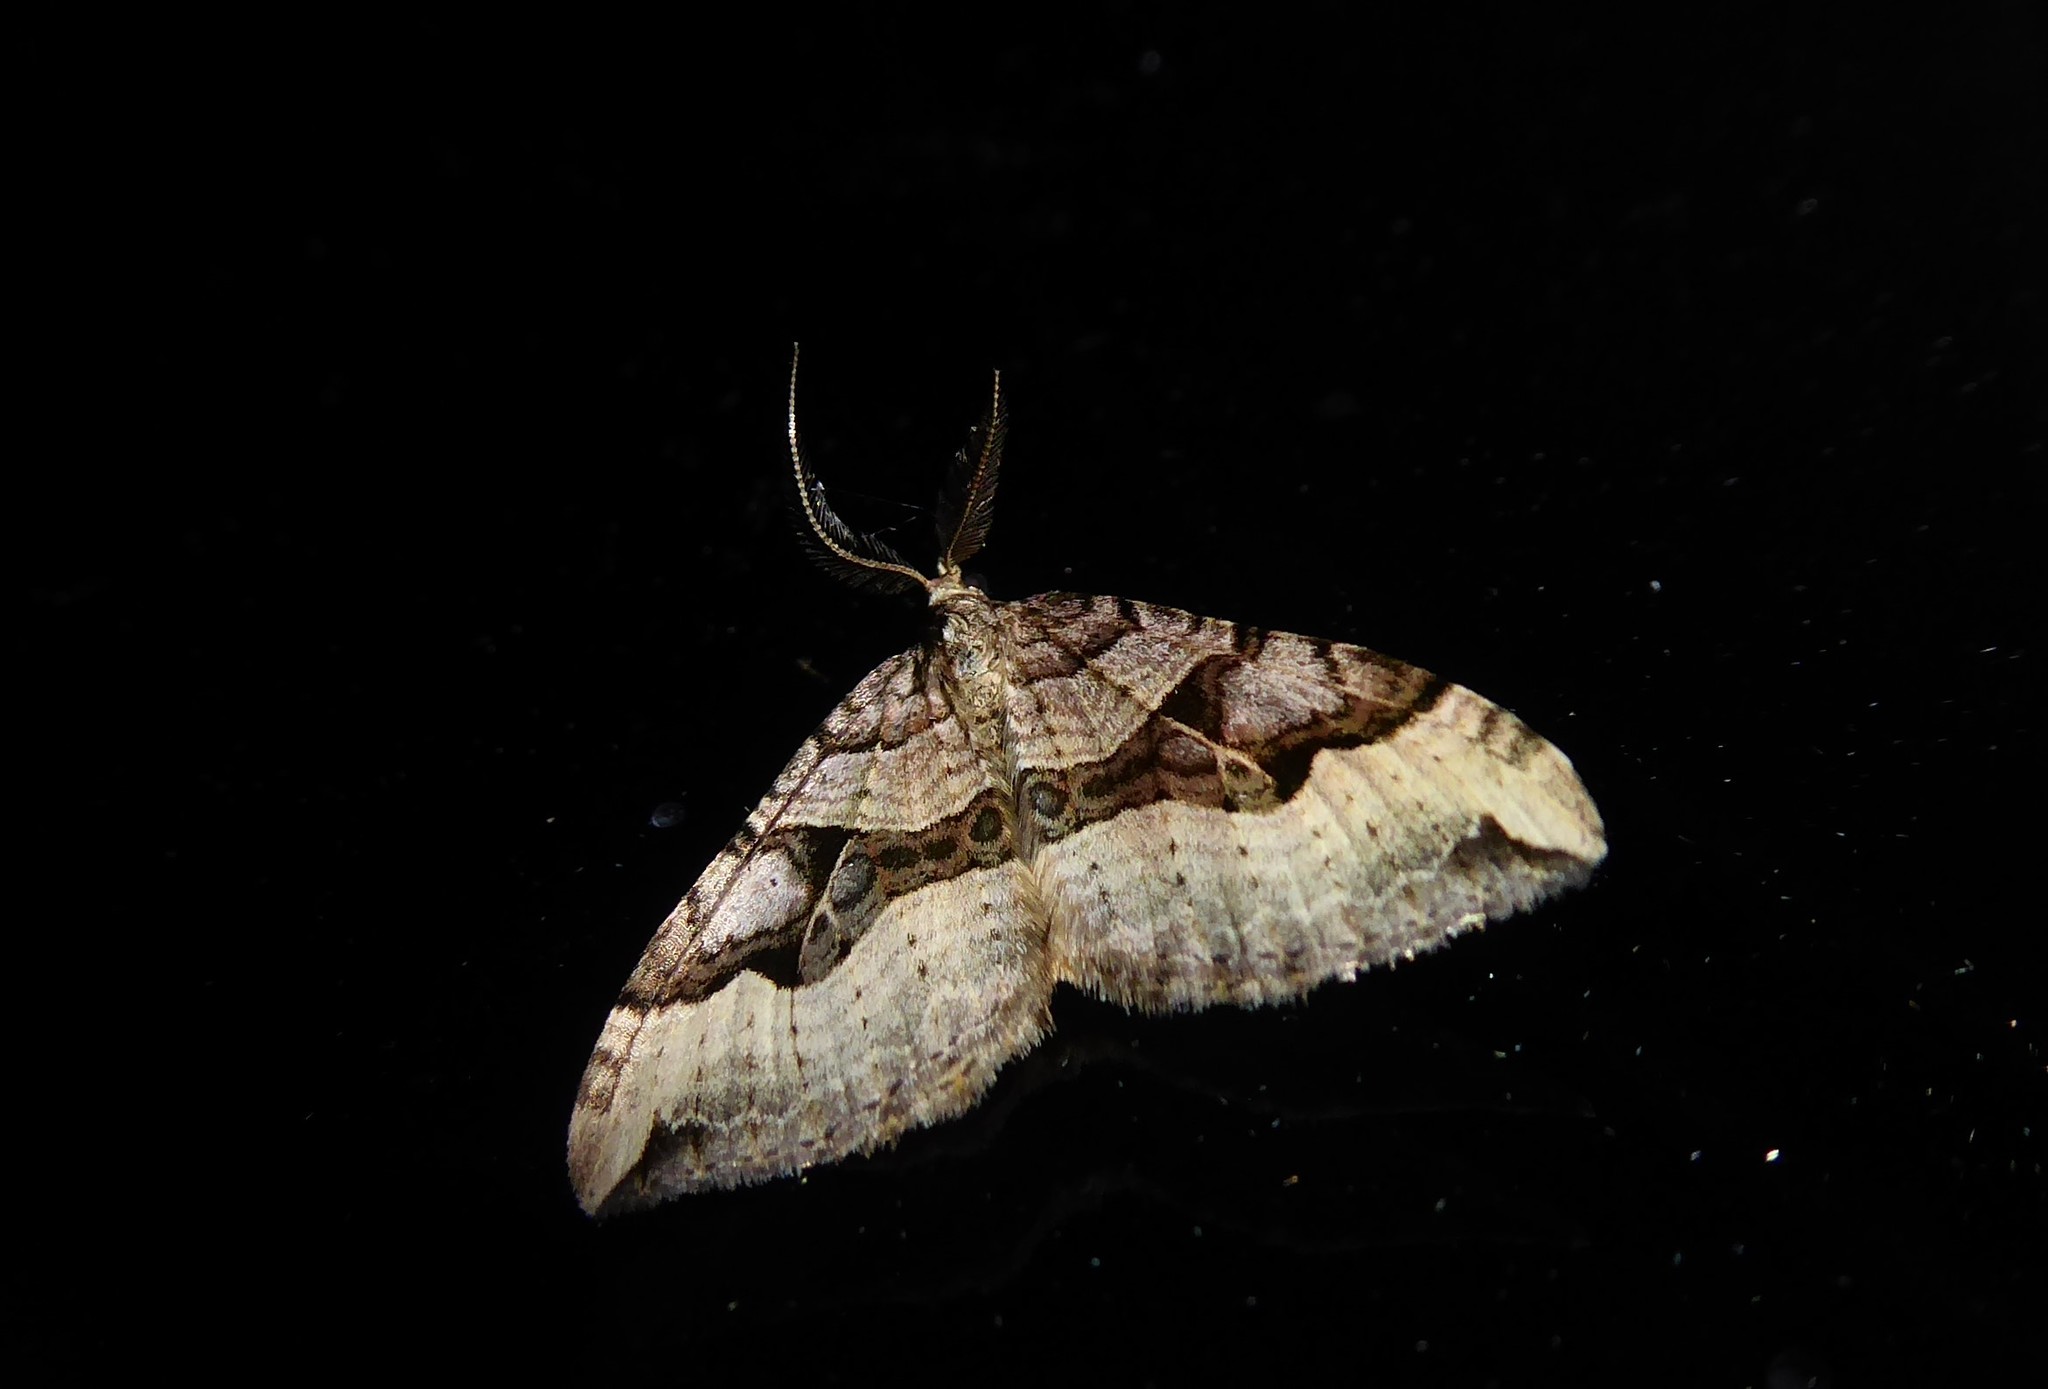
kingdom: Animalia
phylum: Arthropoda
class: Insecta
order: Lepidoptera
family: Geometridae
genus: Xanthorhoe
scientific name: Xanthorhoe semifissata
